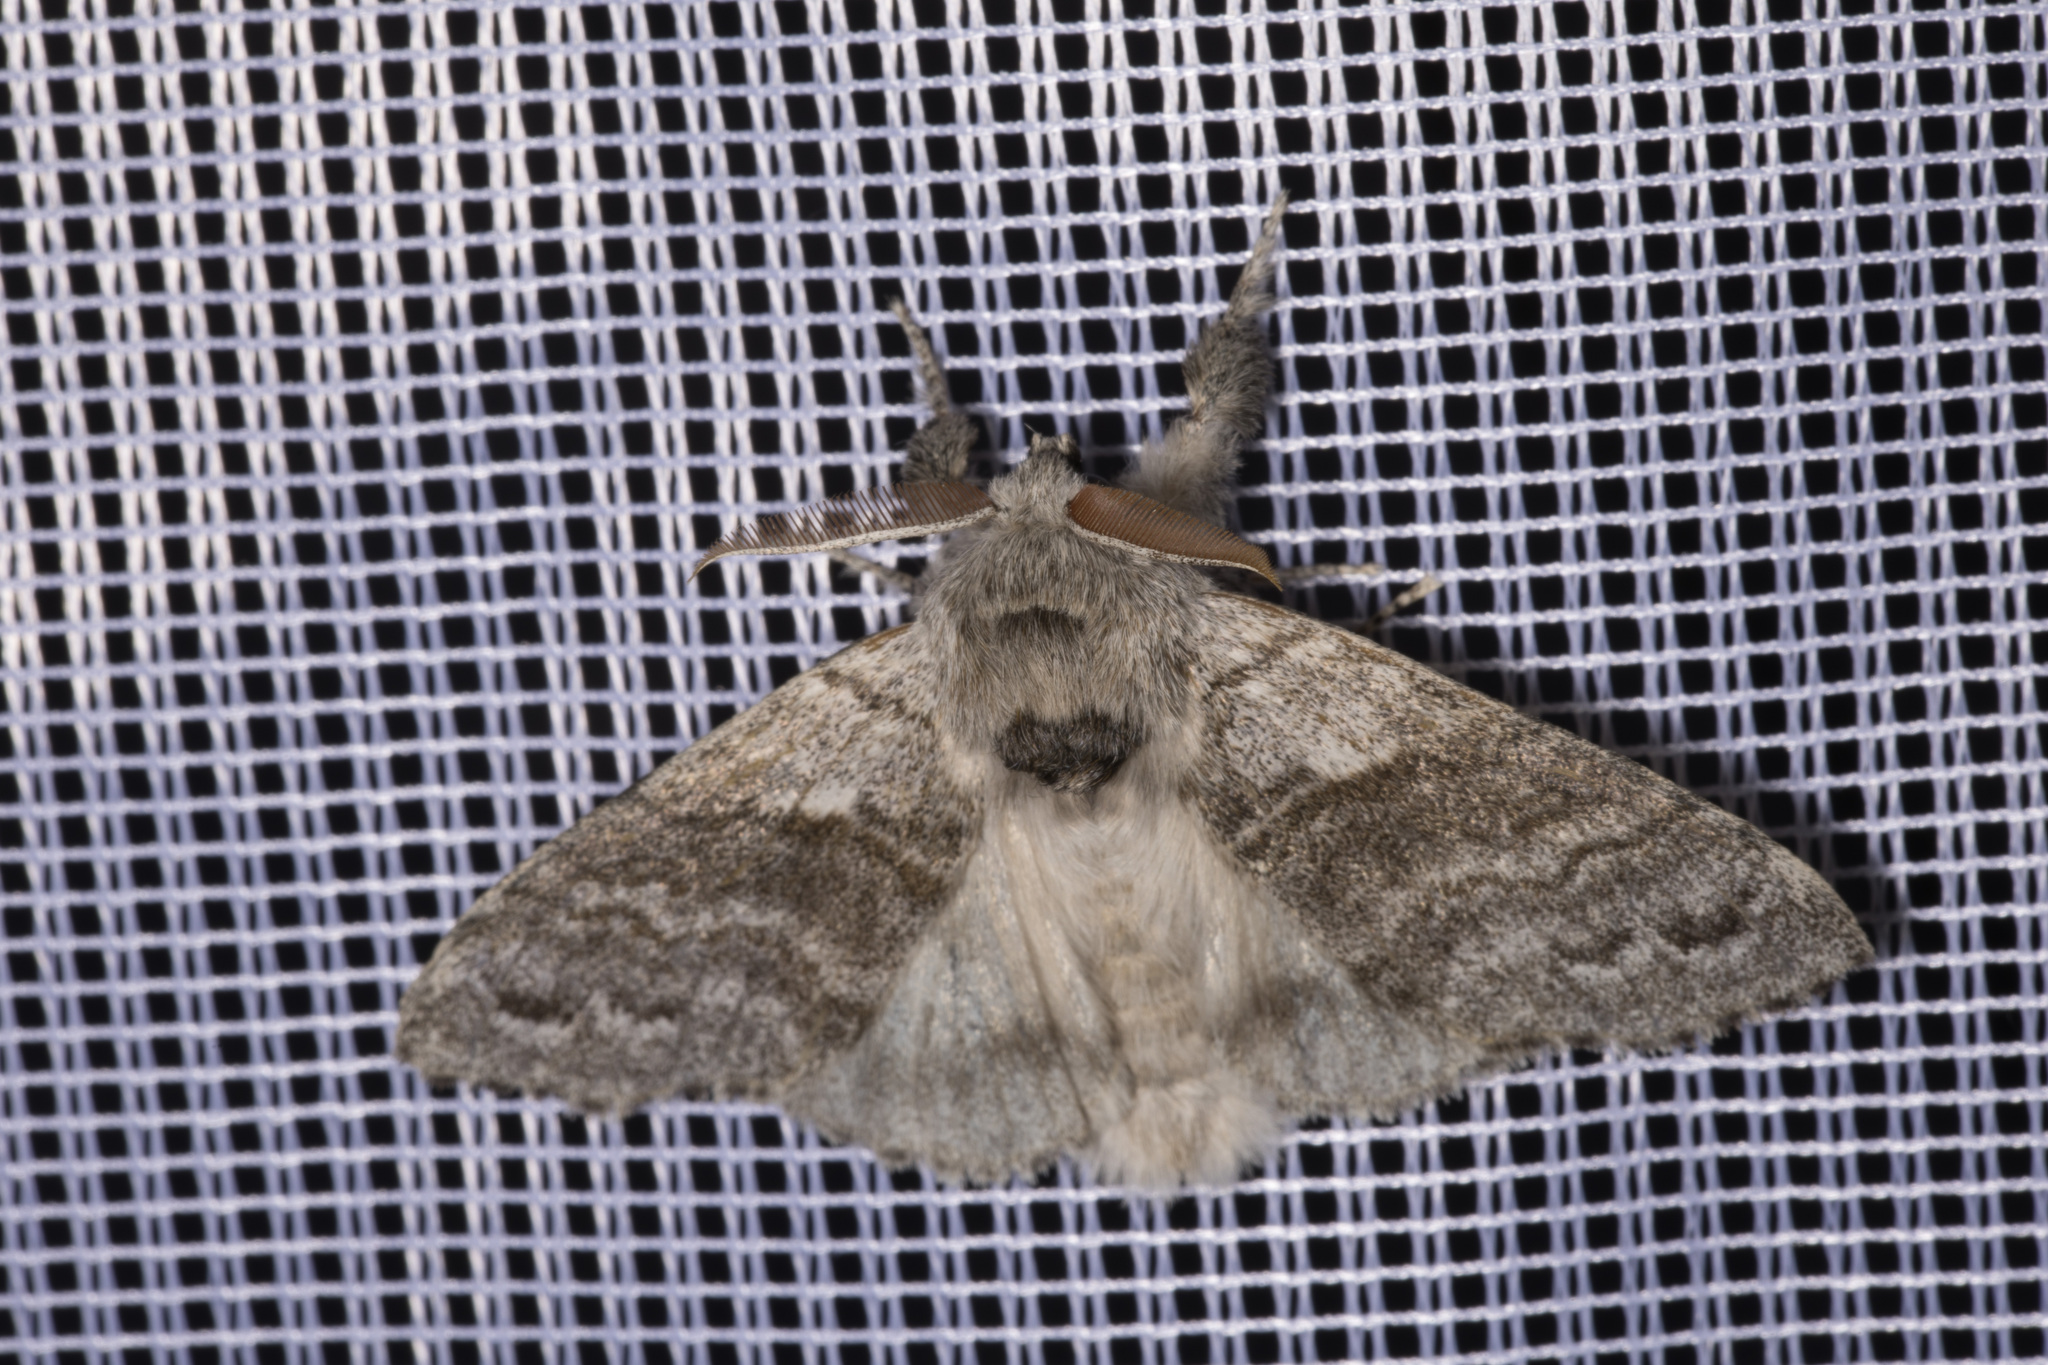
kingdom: Animalia
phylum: Arthropoda
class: Insecta
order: Lepidoptera
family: Erebidae
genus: Calliteara
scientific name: Calliteara pudibunda
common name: Pale tussock
